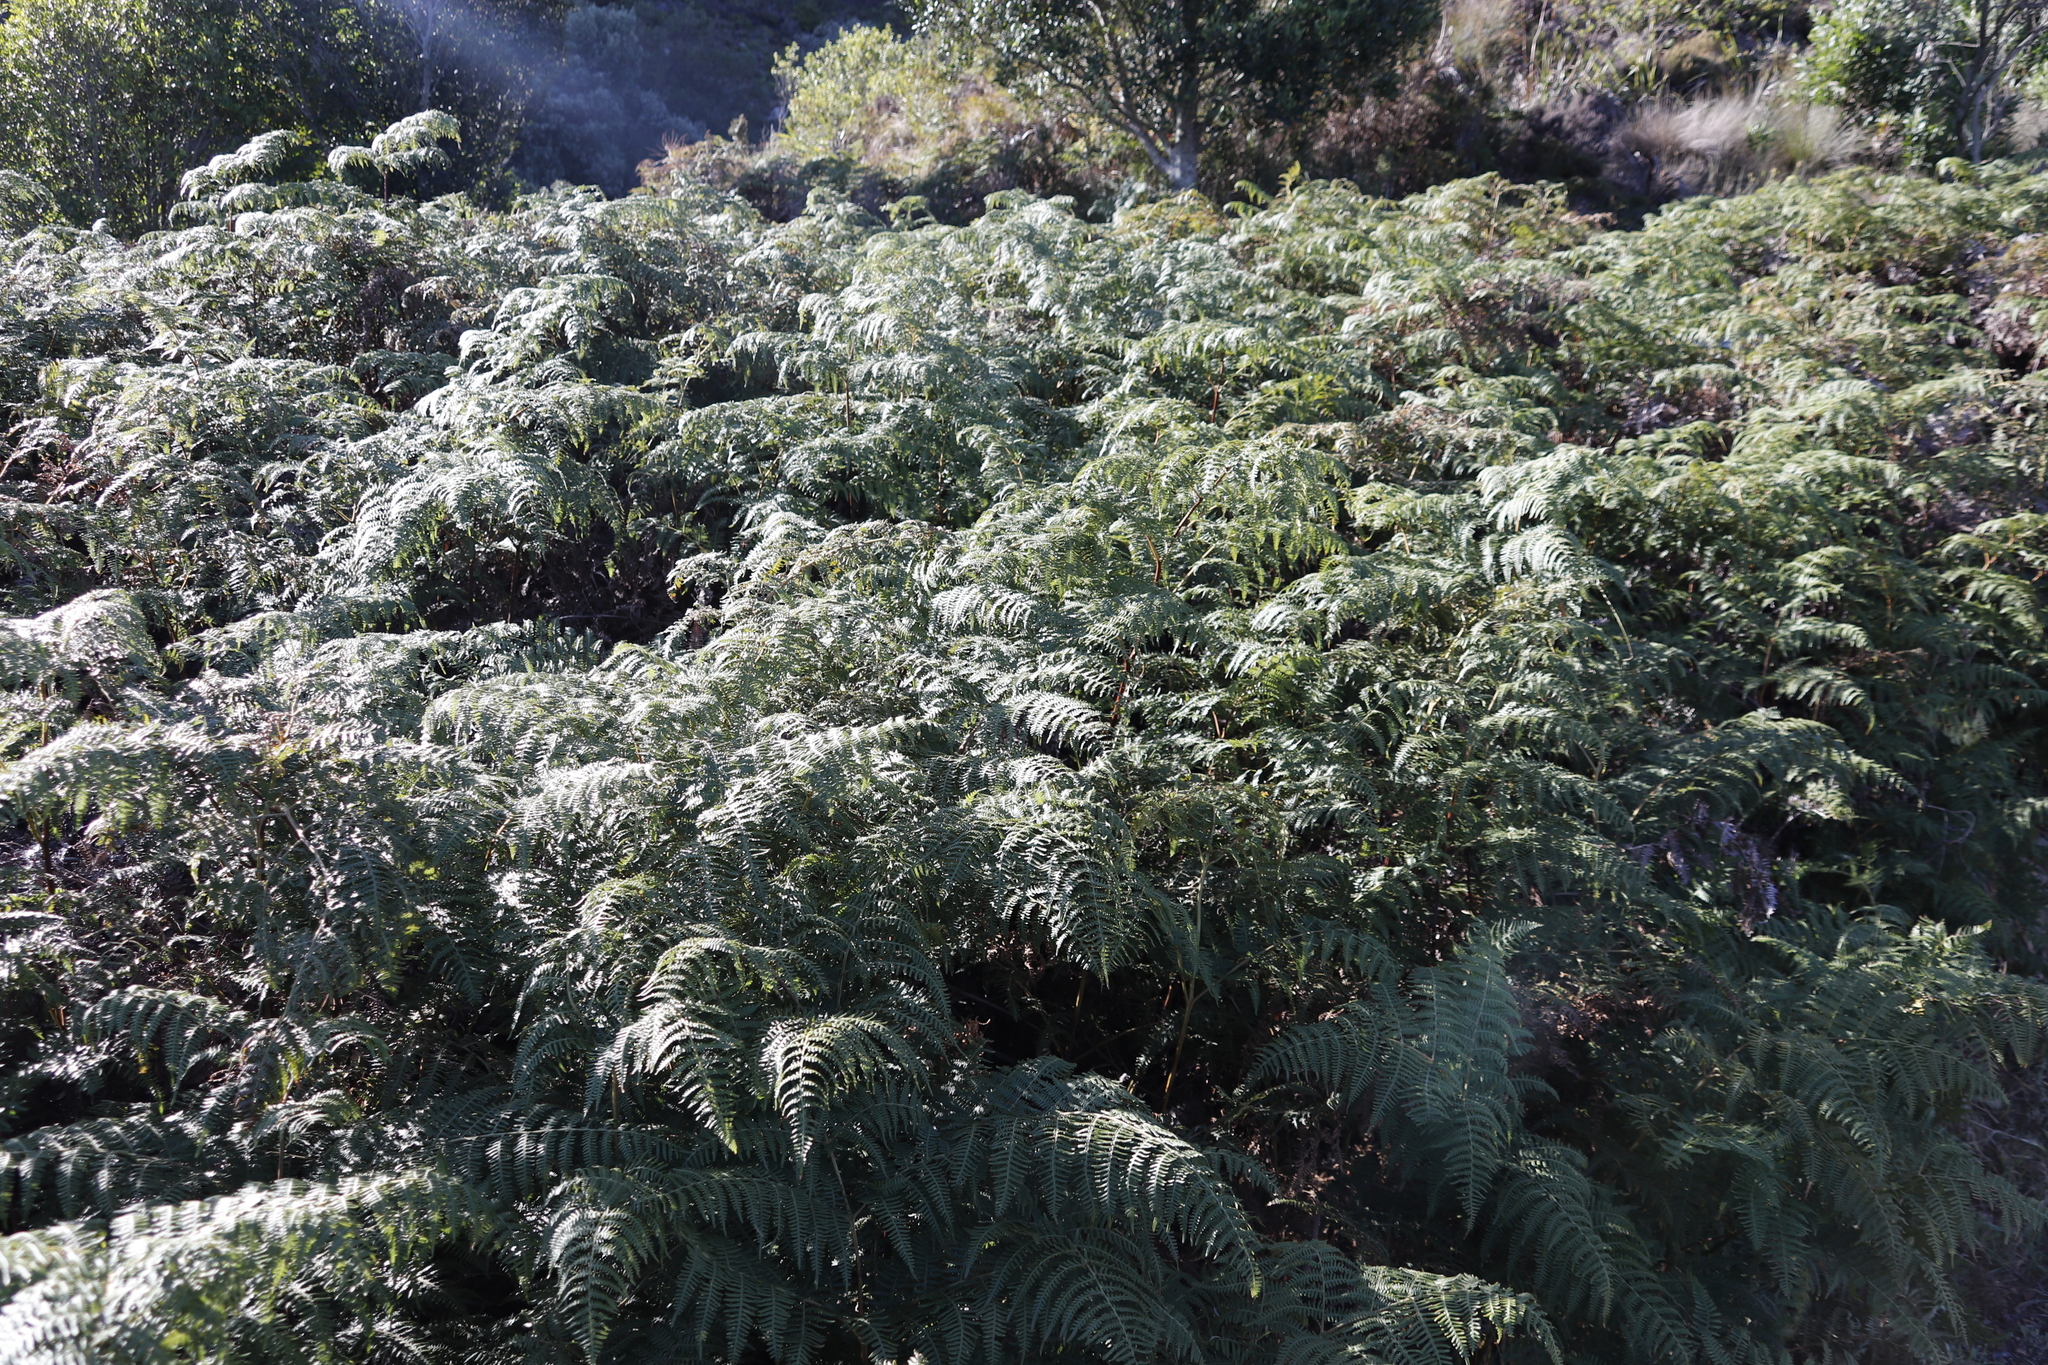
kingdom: Plantae
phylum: Tracheophyta
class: Polypodiopsida
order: Polypodiales
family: Dennstaedtiaceae
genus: Pteridium
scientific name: Pteridium aquilinum
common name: Bracken
